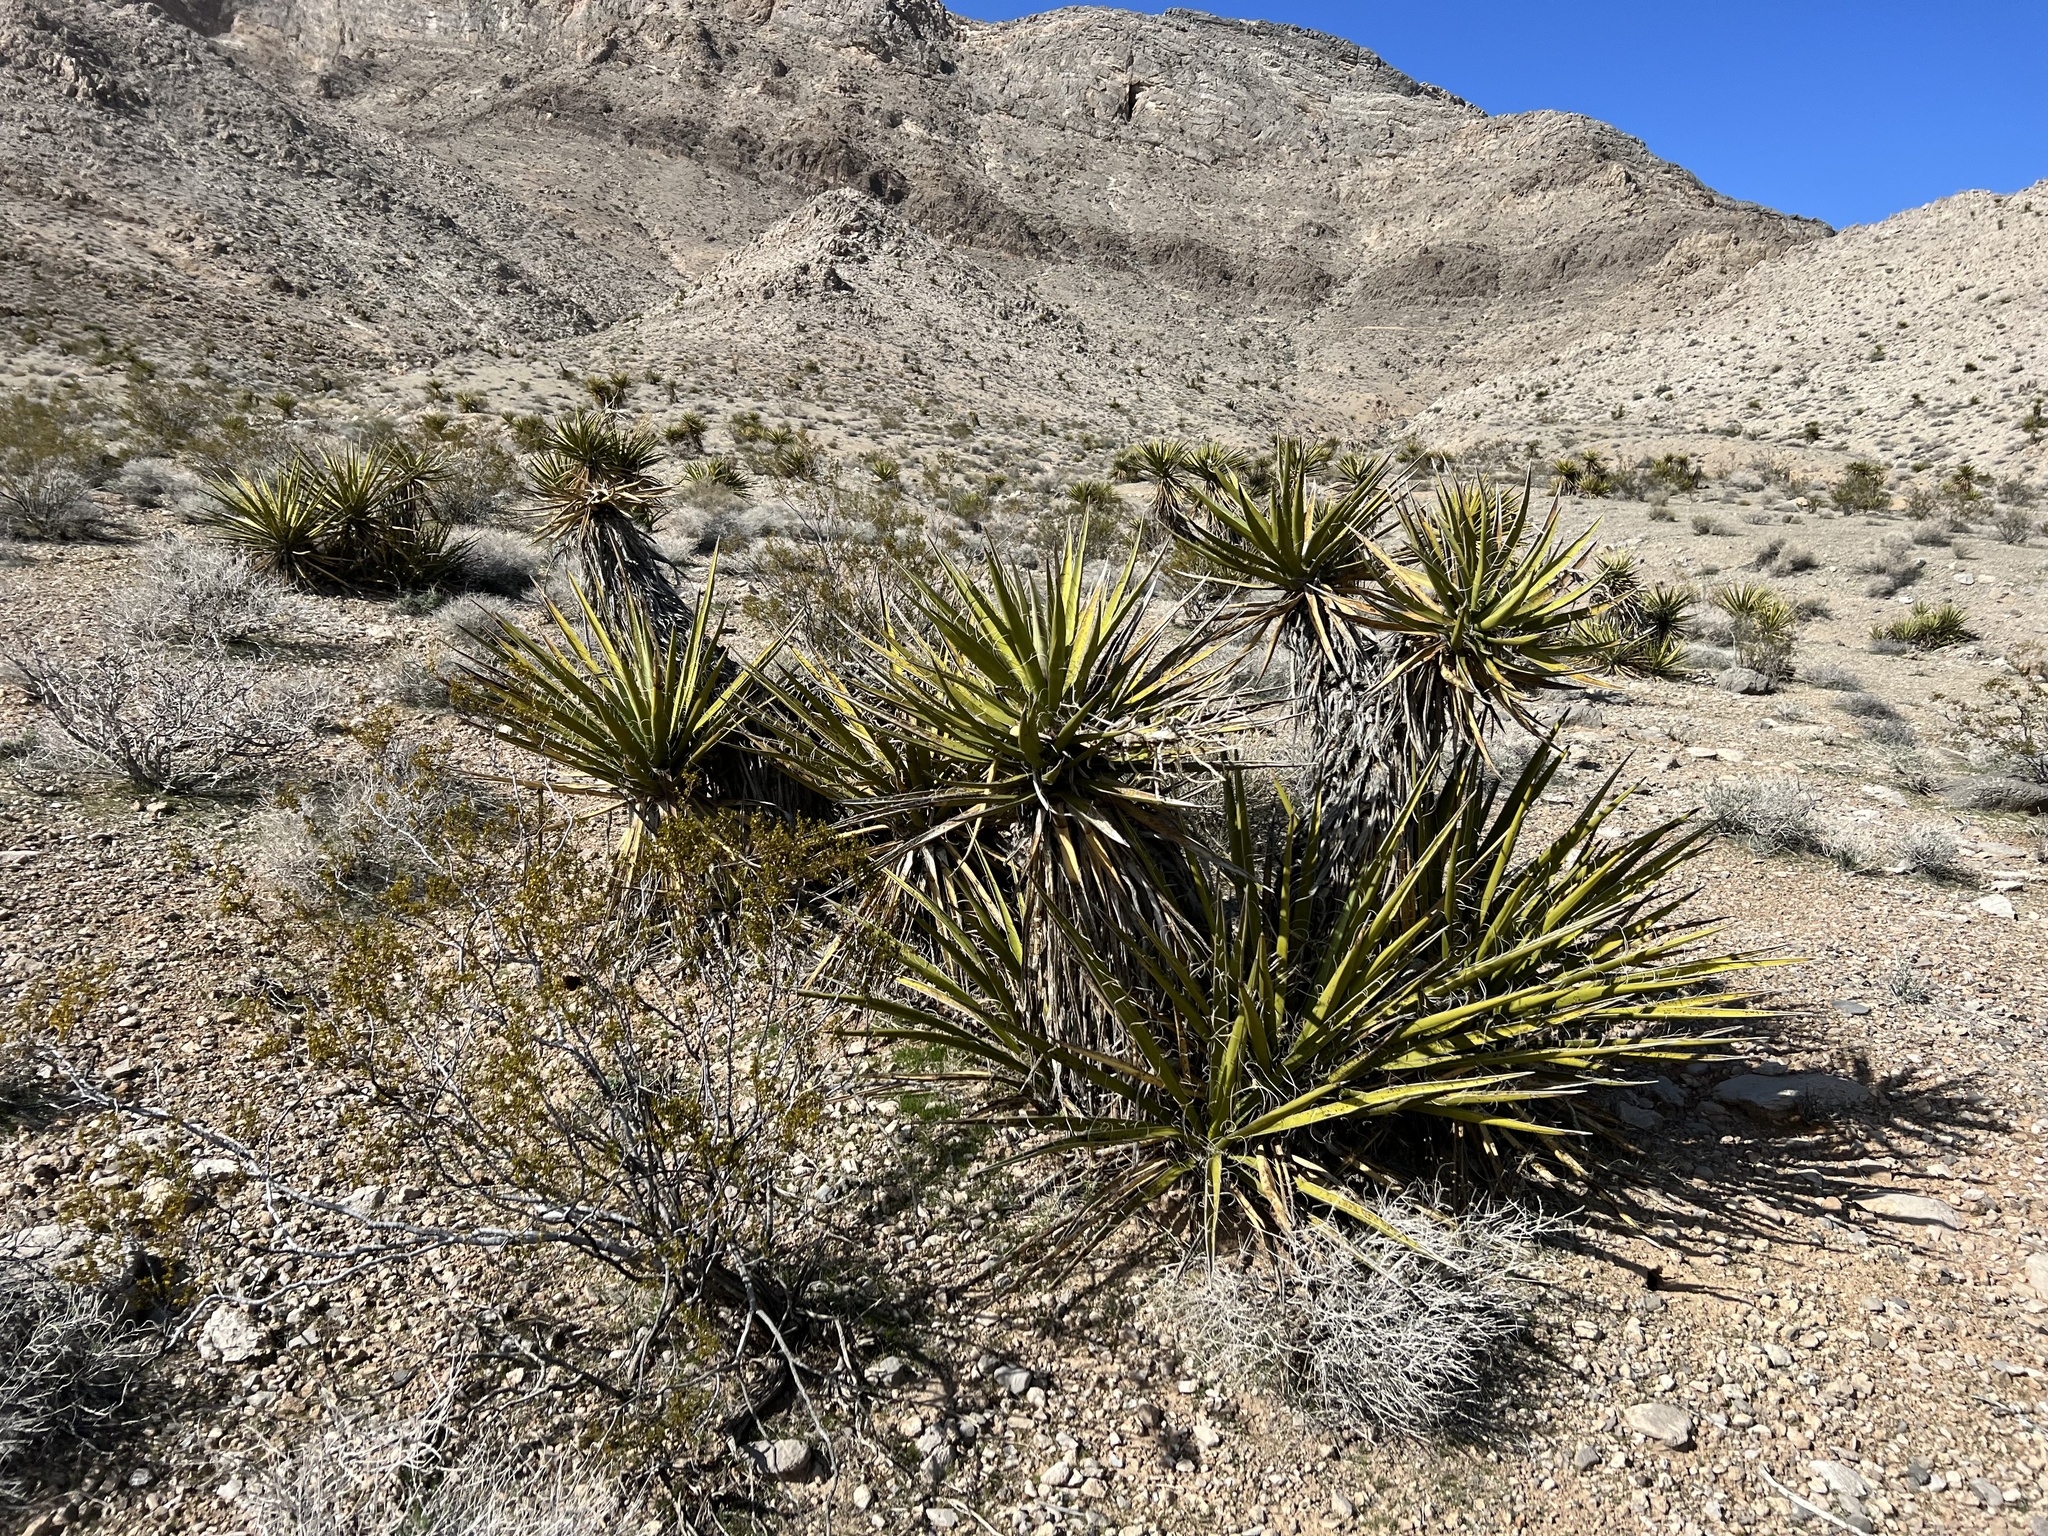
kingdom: Plantae
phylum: Tracheophyta
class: Liliopsida
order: Asparagales
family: Asparagaceae
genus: Yucca
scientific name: Yucca schidigera
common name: Mojave yucca
